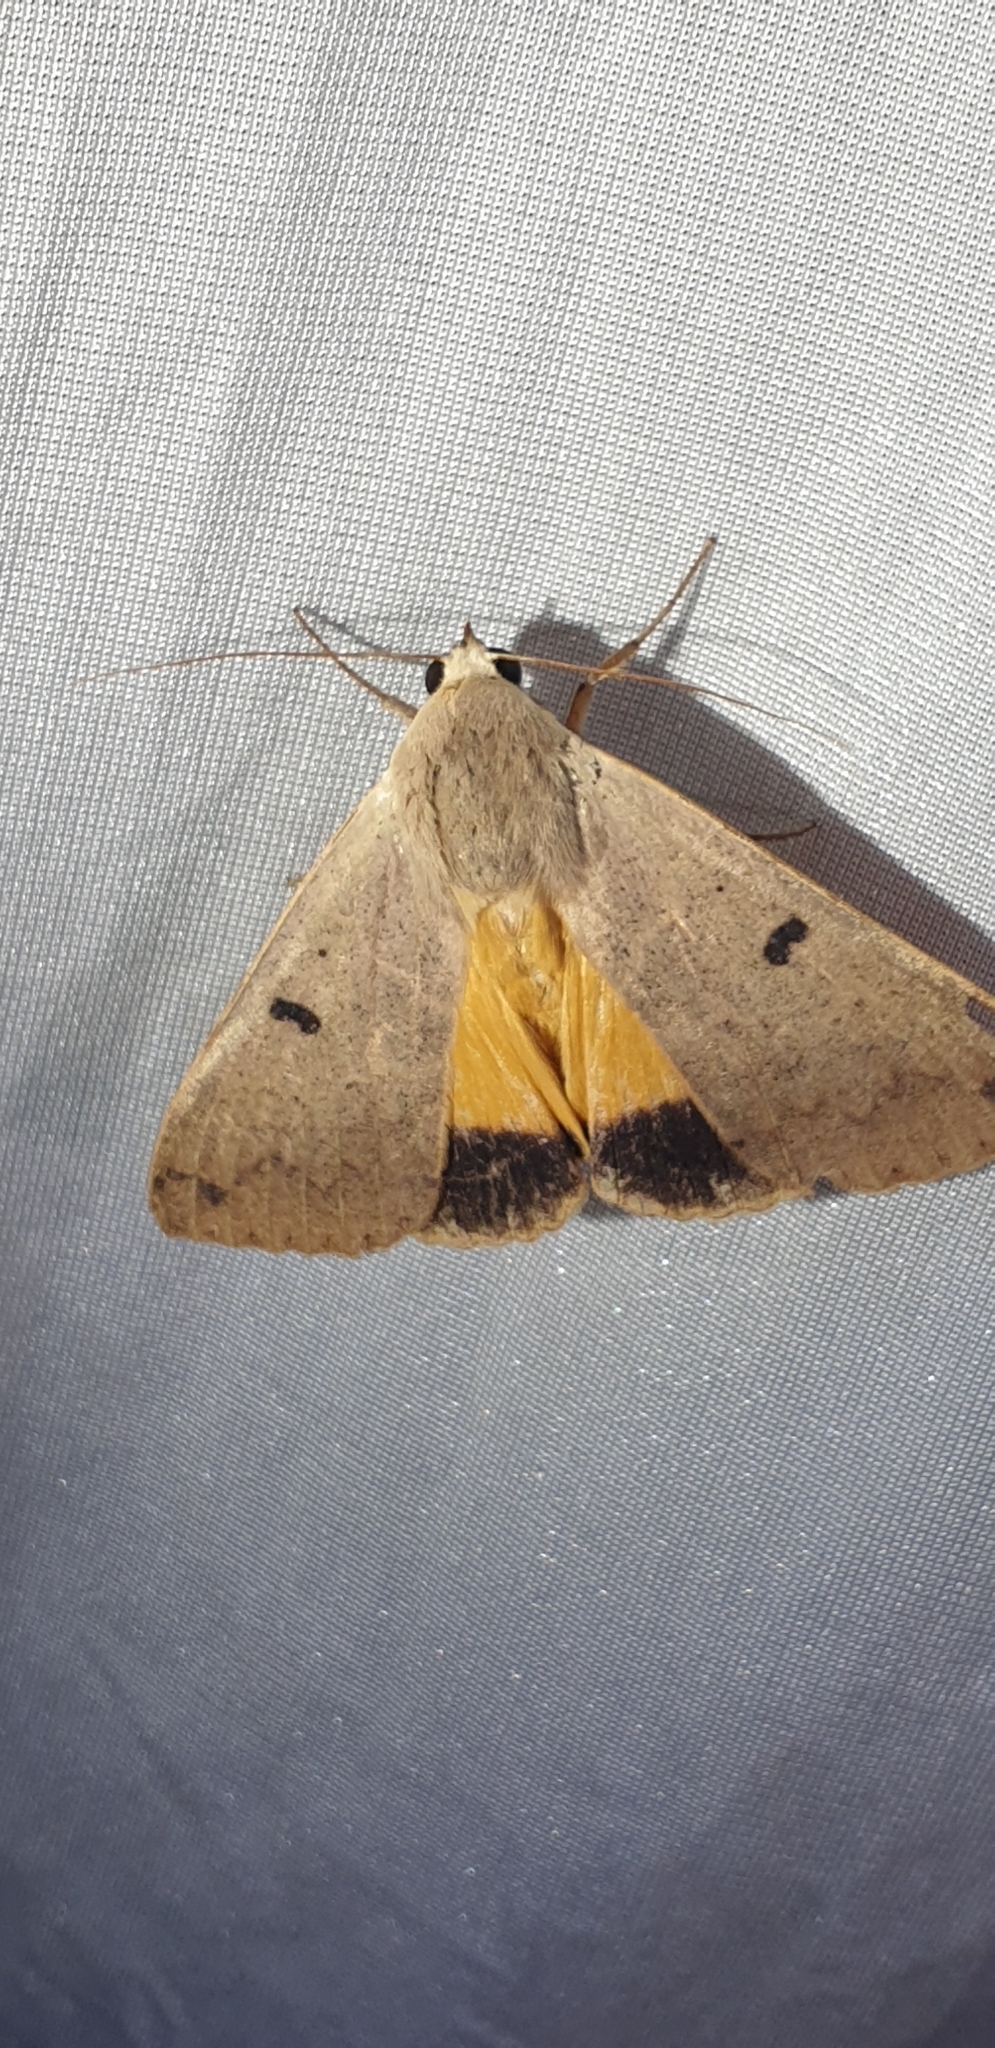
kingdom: Animalia
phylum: Arthropoda
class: Insecta
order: Lepidoptera
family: Erebidae
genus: Ophiusa
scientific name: Ophiusa disjungens
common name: Moth
